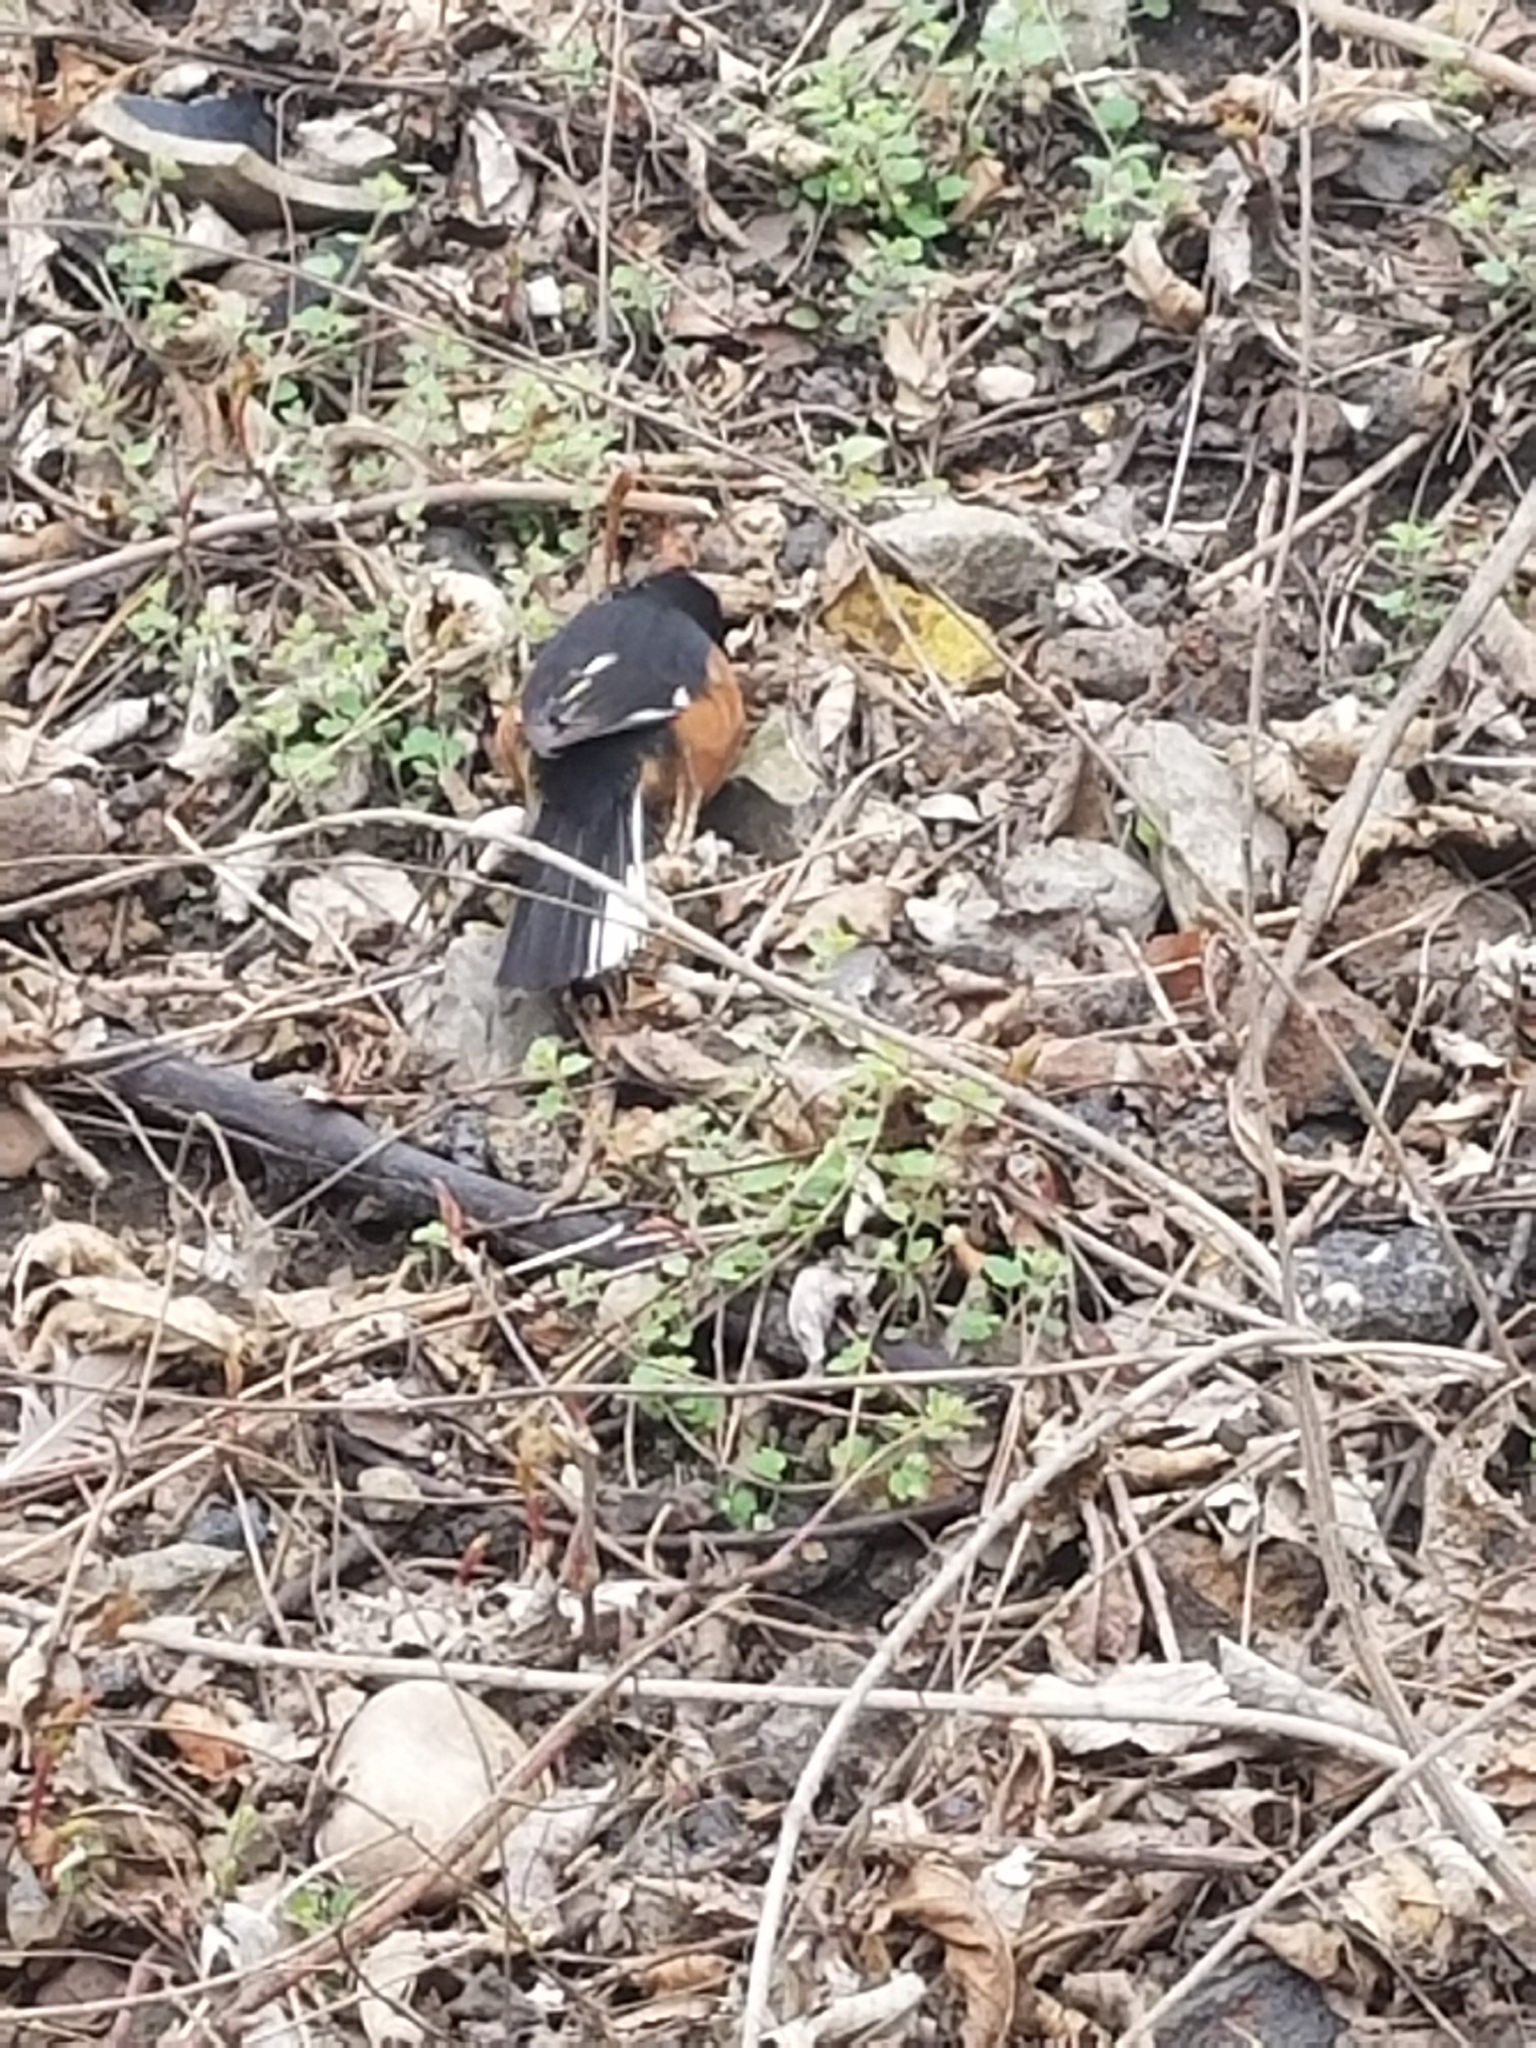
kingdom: Animalia
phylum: Chordata
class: Aves
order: Passeriformes
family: Passerellidae
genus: Pipilo
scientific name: Pipilo erythrophthalmus
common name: Eastern towhee
